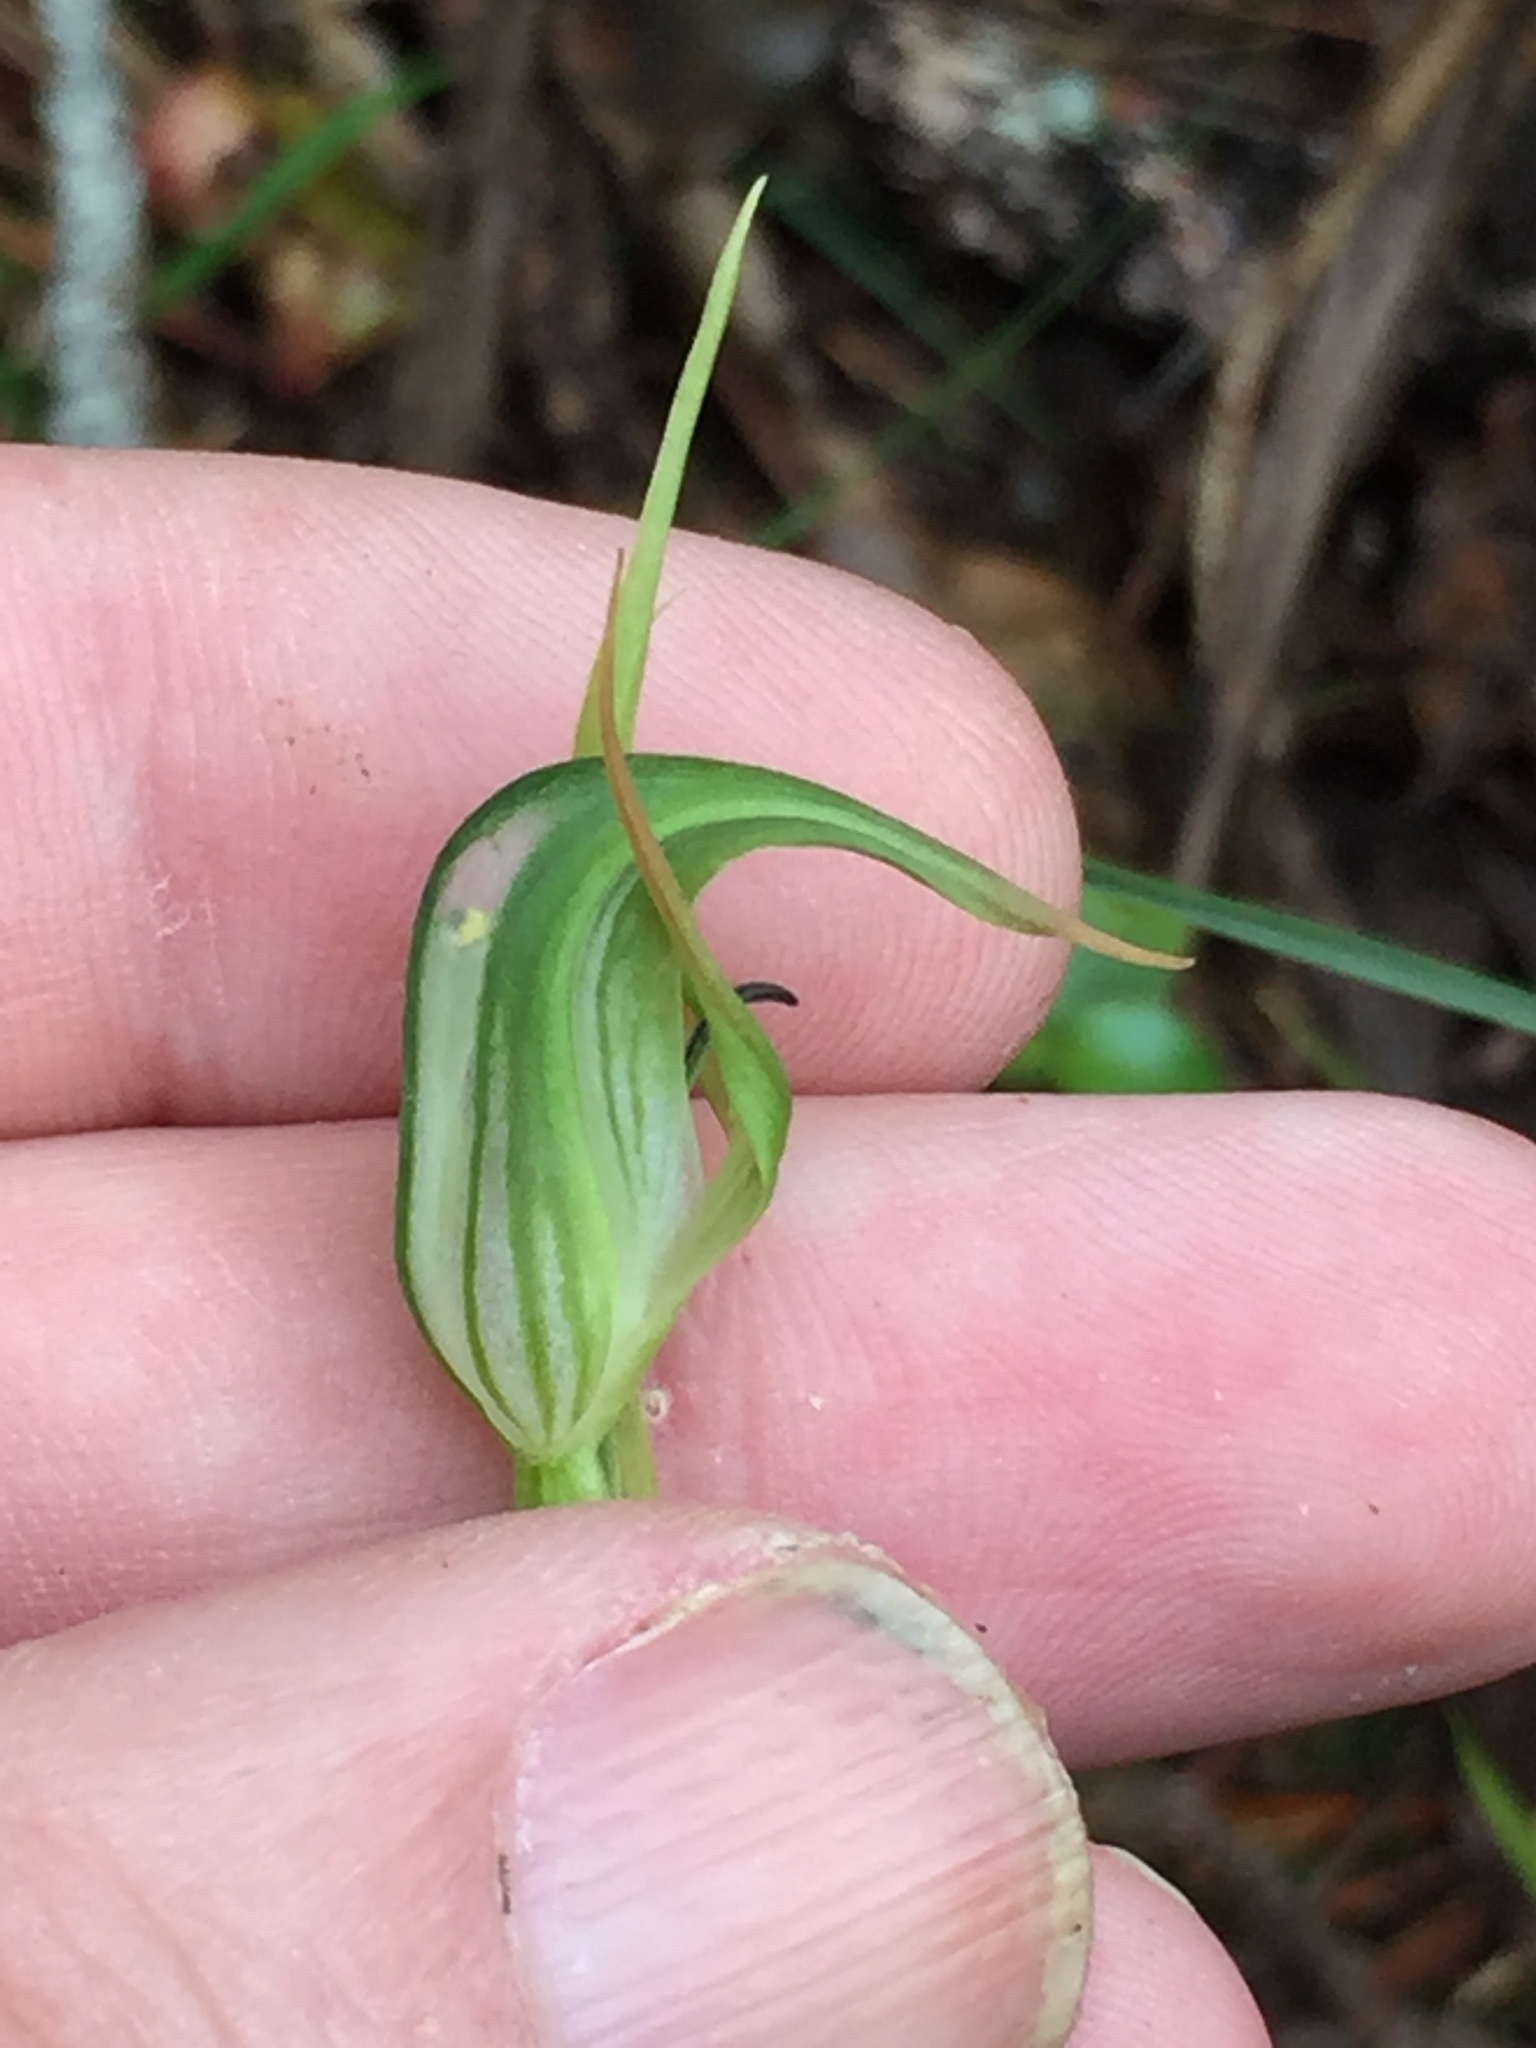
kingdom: Plantae
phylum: Tracheophyta
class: Liliopsida
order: Asparagales
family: Orchidaceae
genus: Pterostylis
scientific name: Pterostylis graminea
